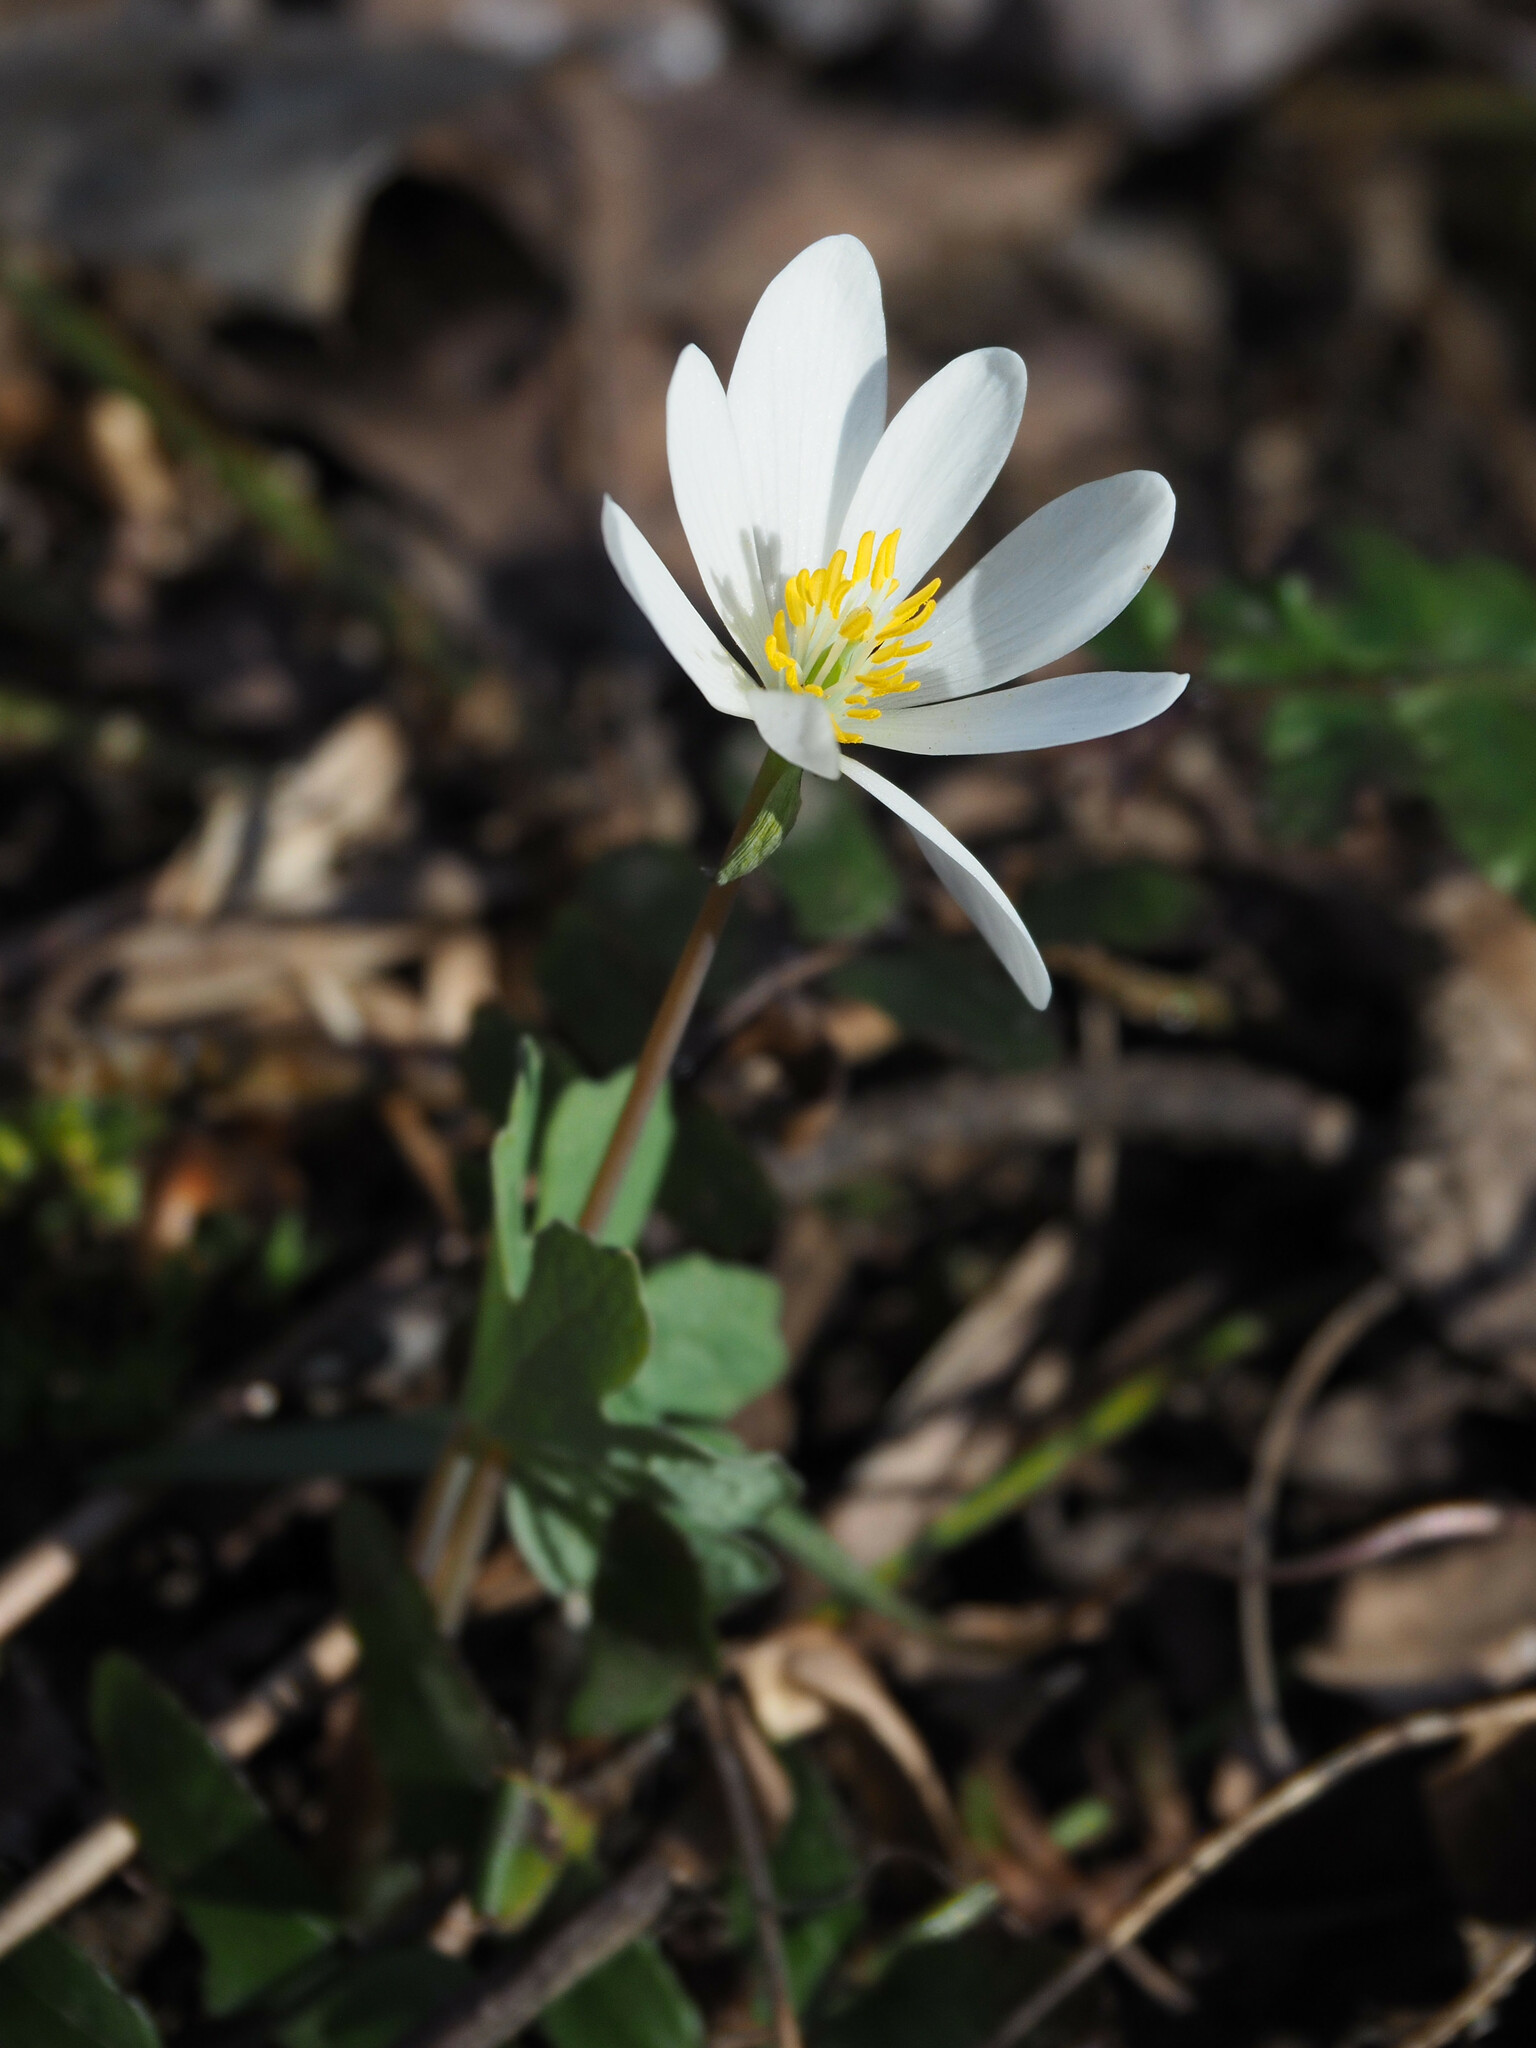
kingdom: Plantae
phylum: Tracheophyta
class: Magnoliopsida
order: Ranunculales
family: Papaveraceae
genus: Sanguinaria
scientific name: Sanguinaria canadensis
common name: Bloodroot
